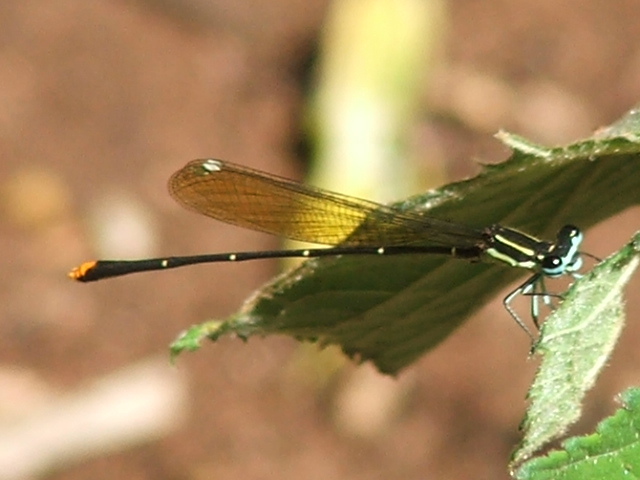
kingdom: Animalia
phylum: Arthropoda
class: Insecta
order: Odonata
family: Platycnemididae
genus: Allocnemis
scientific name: Allocnemis leucosticta
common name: Goldtail
